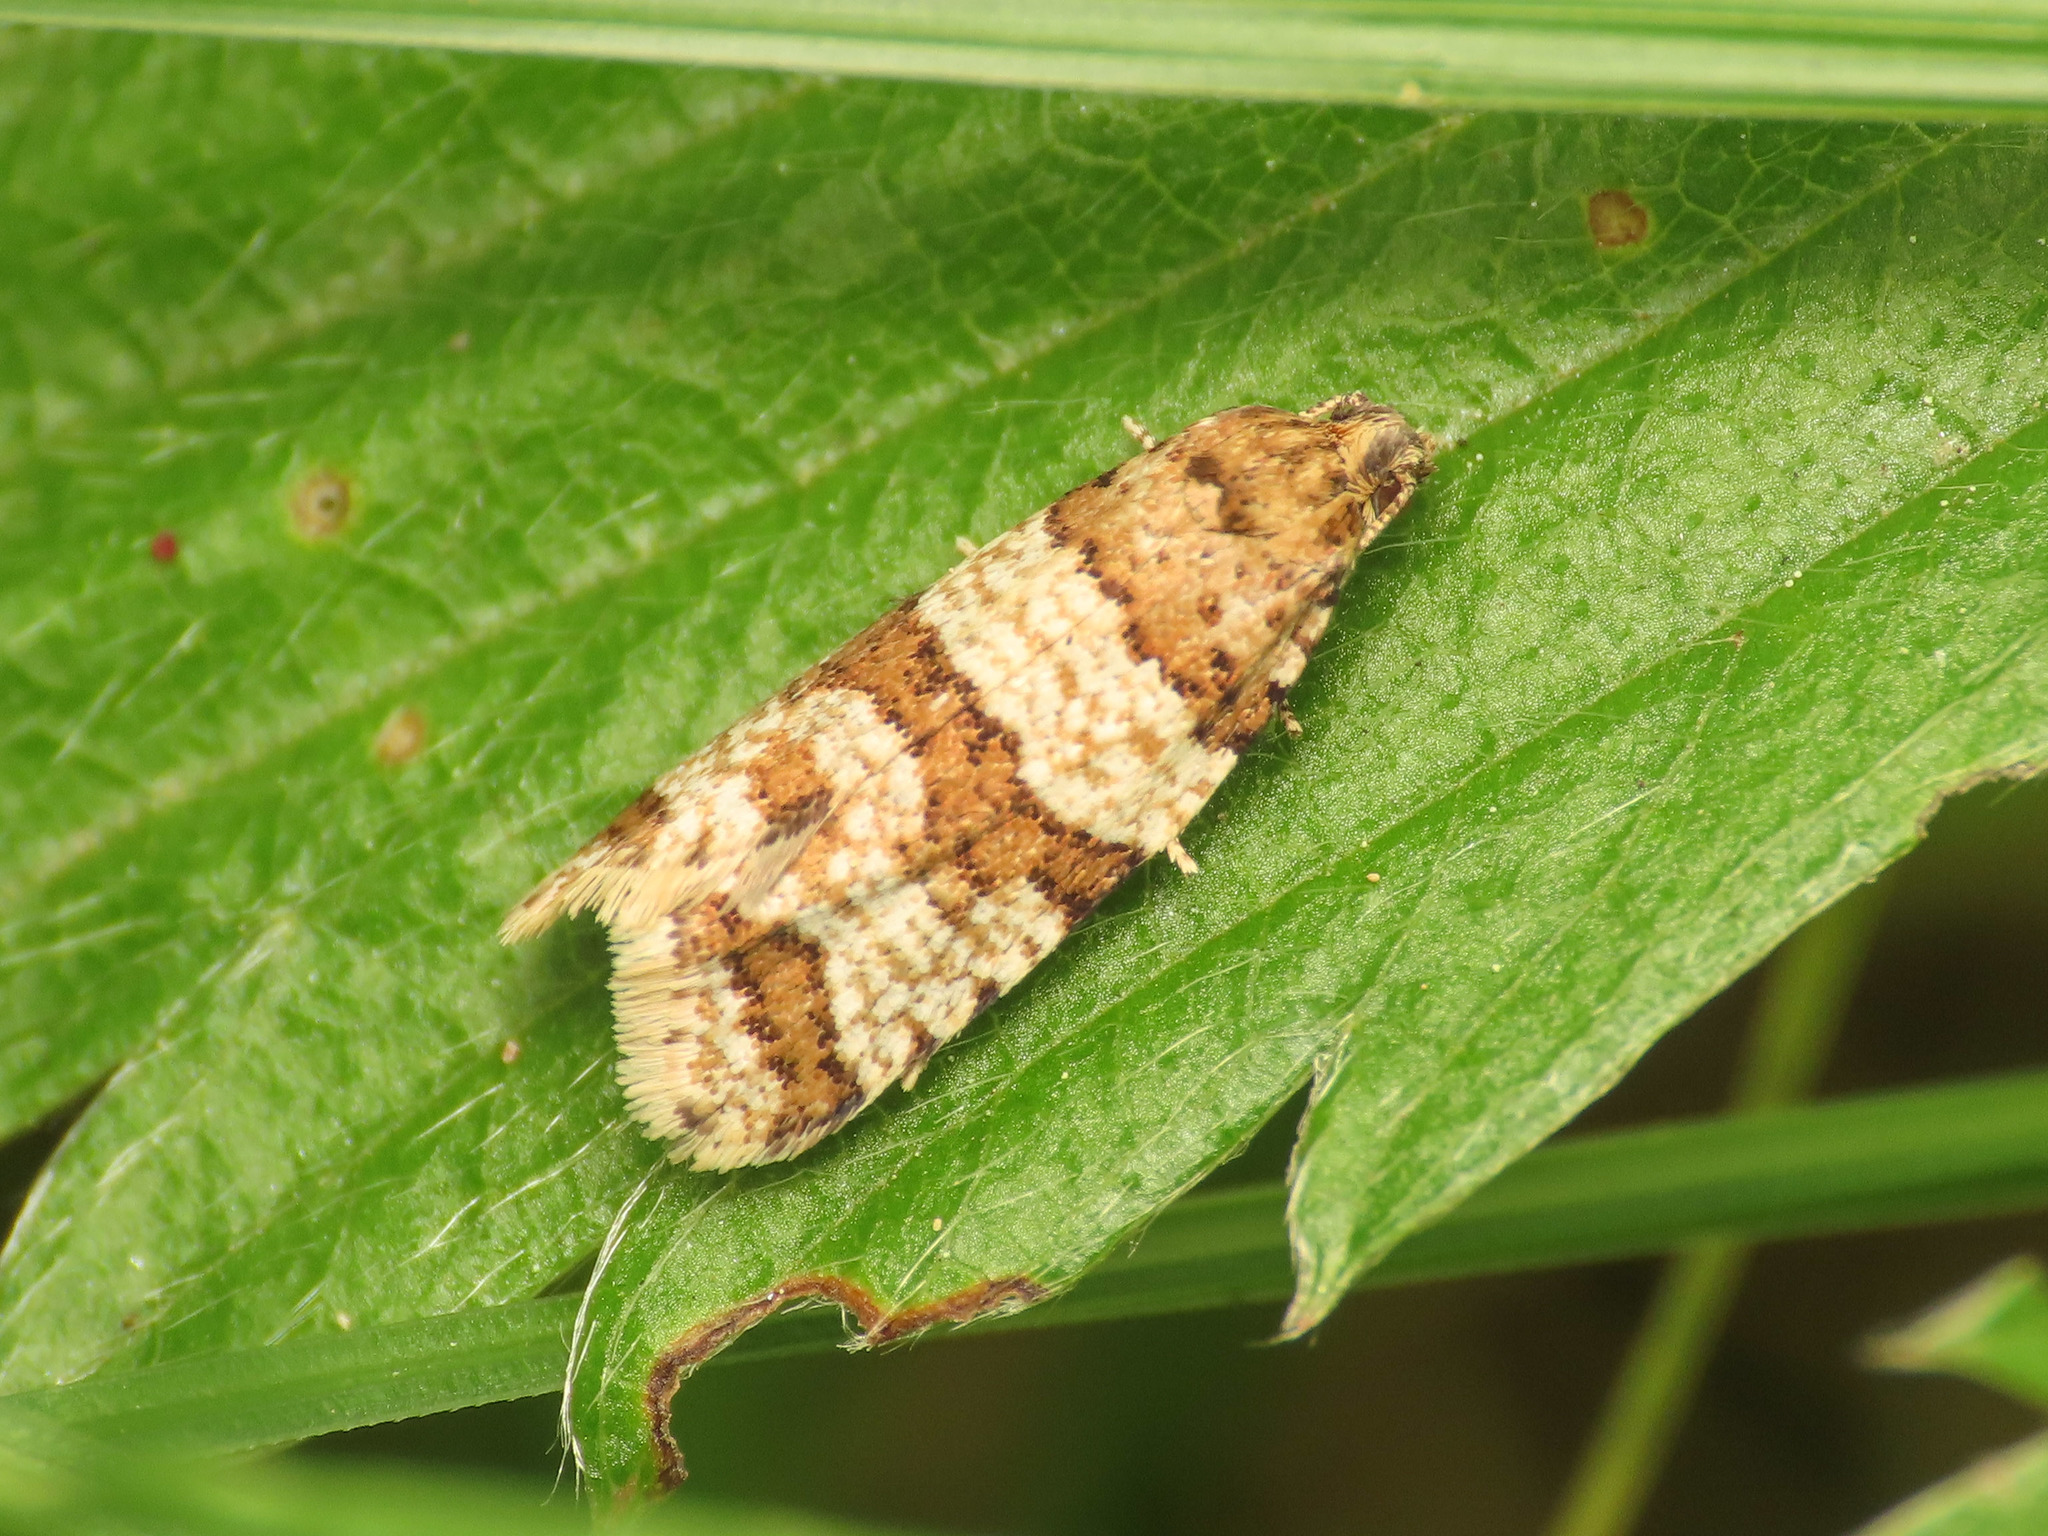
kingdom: Animalia
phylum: Arthropoda
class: Insecta
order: Lepidoptera
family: Tortricidae
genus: Isotrias
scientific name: Isotrias rectifasciana
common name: Hedge shade
